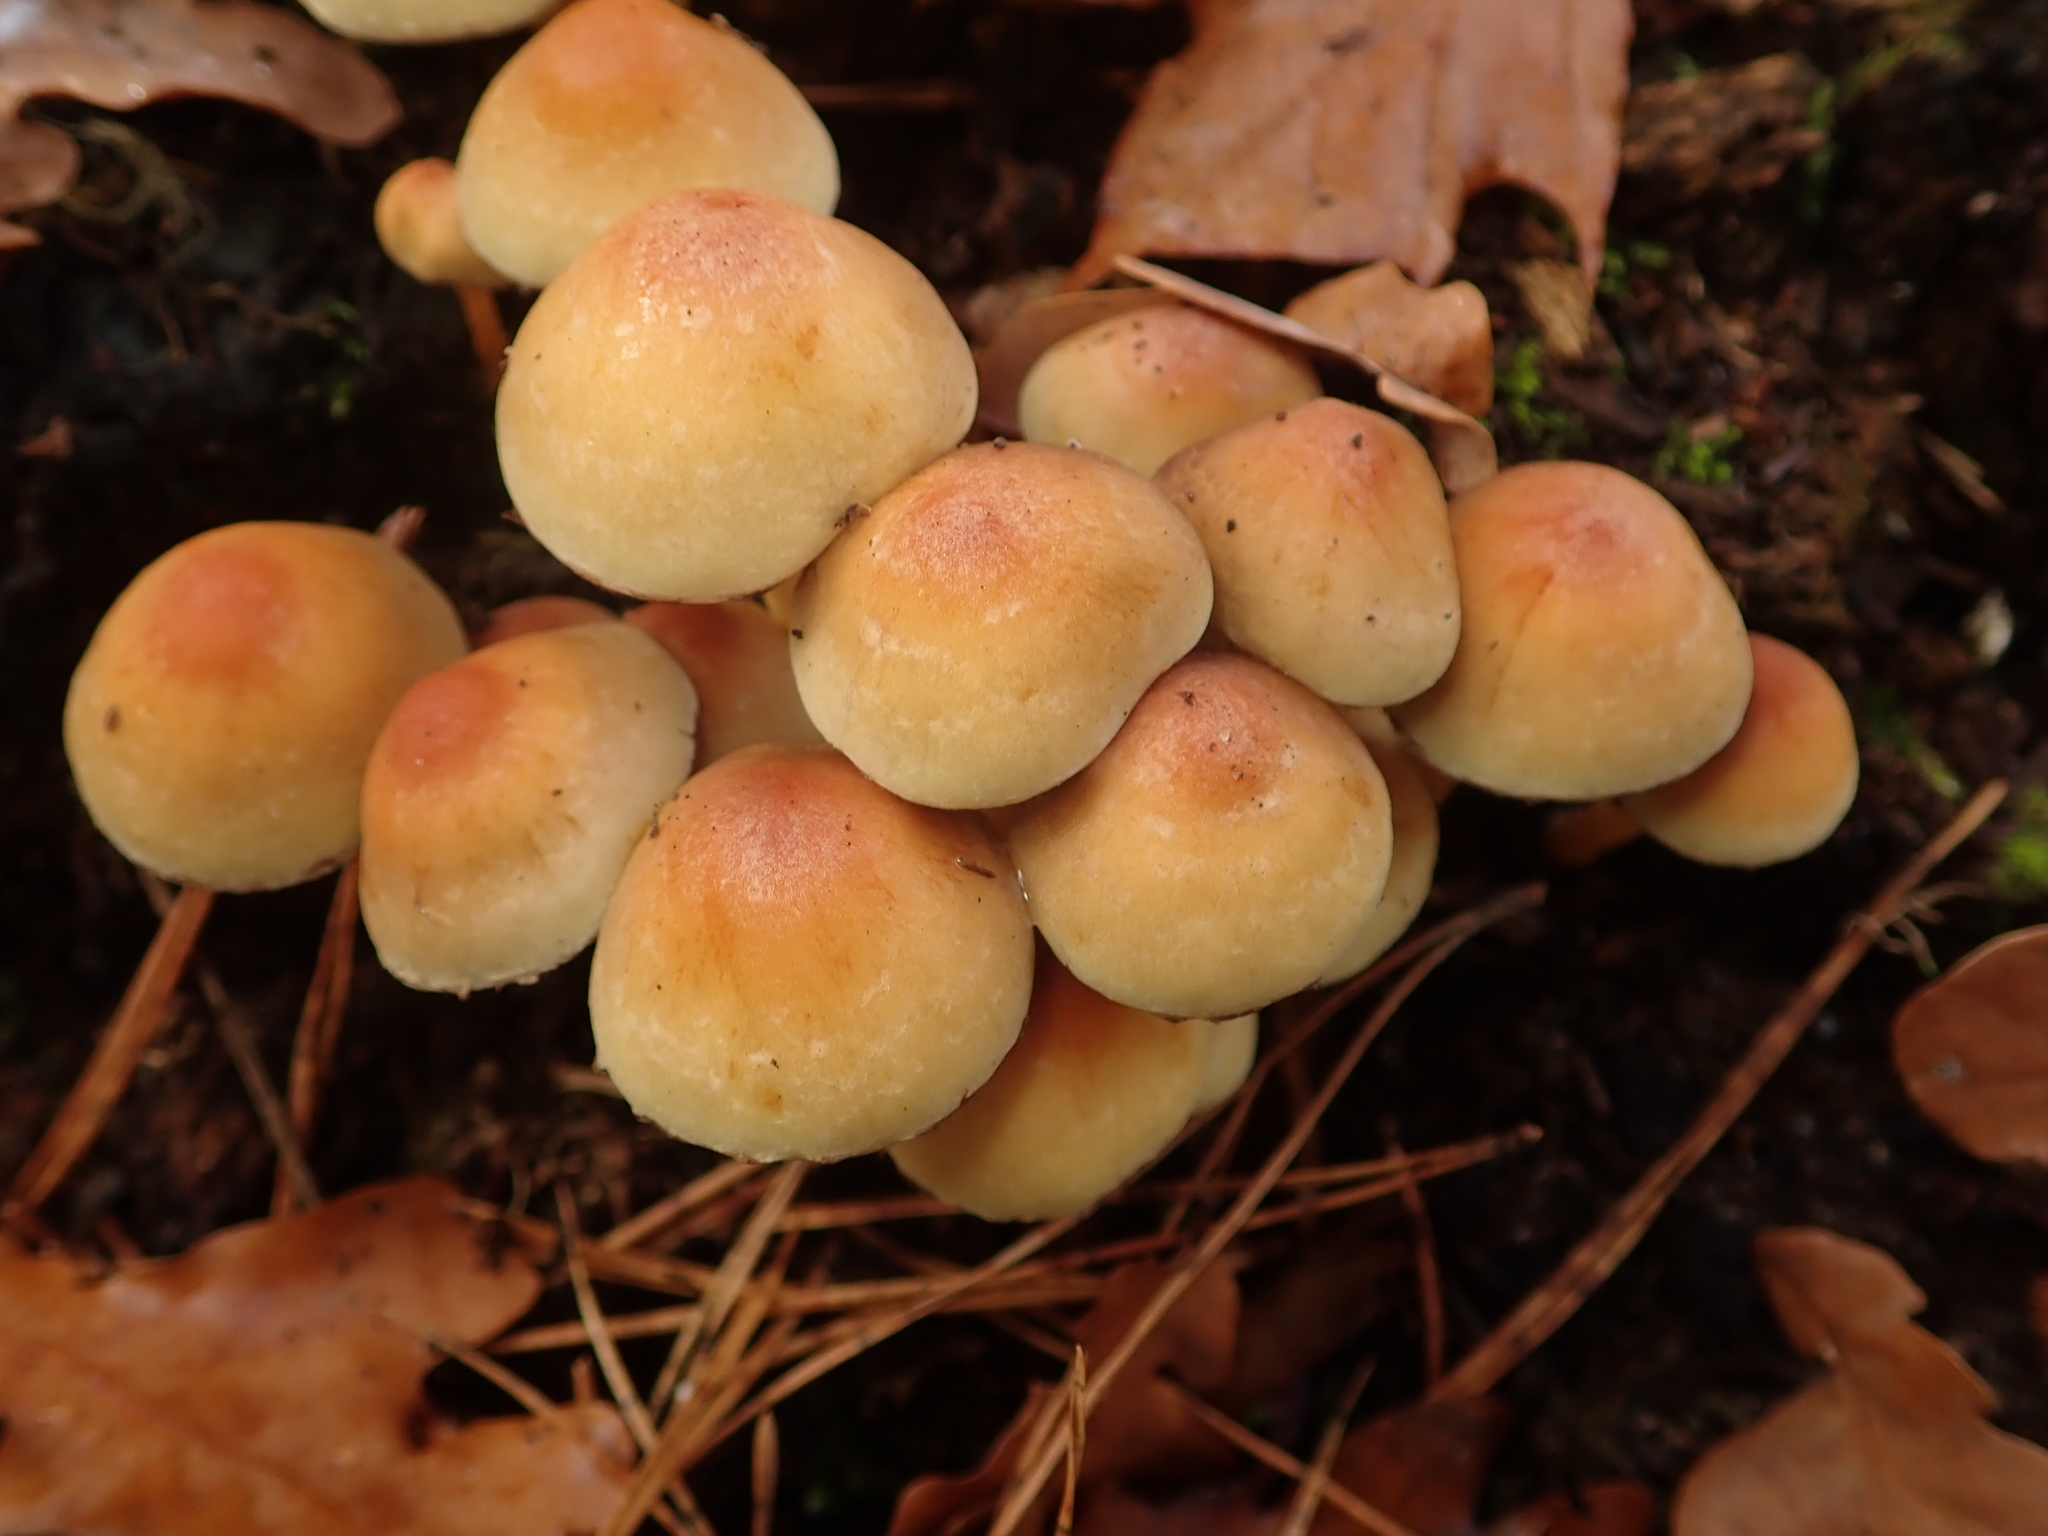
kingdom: Fungi
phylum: Basidiomycota
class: Agaricomycetes
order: Agaricales
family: Strophariaceae
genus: Hypholoma
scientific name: Hypholoma fasciculare
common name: Sulphur tuft
